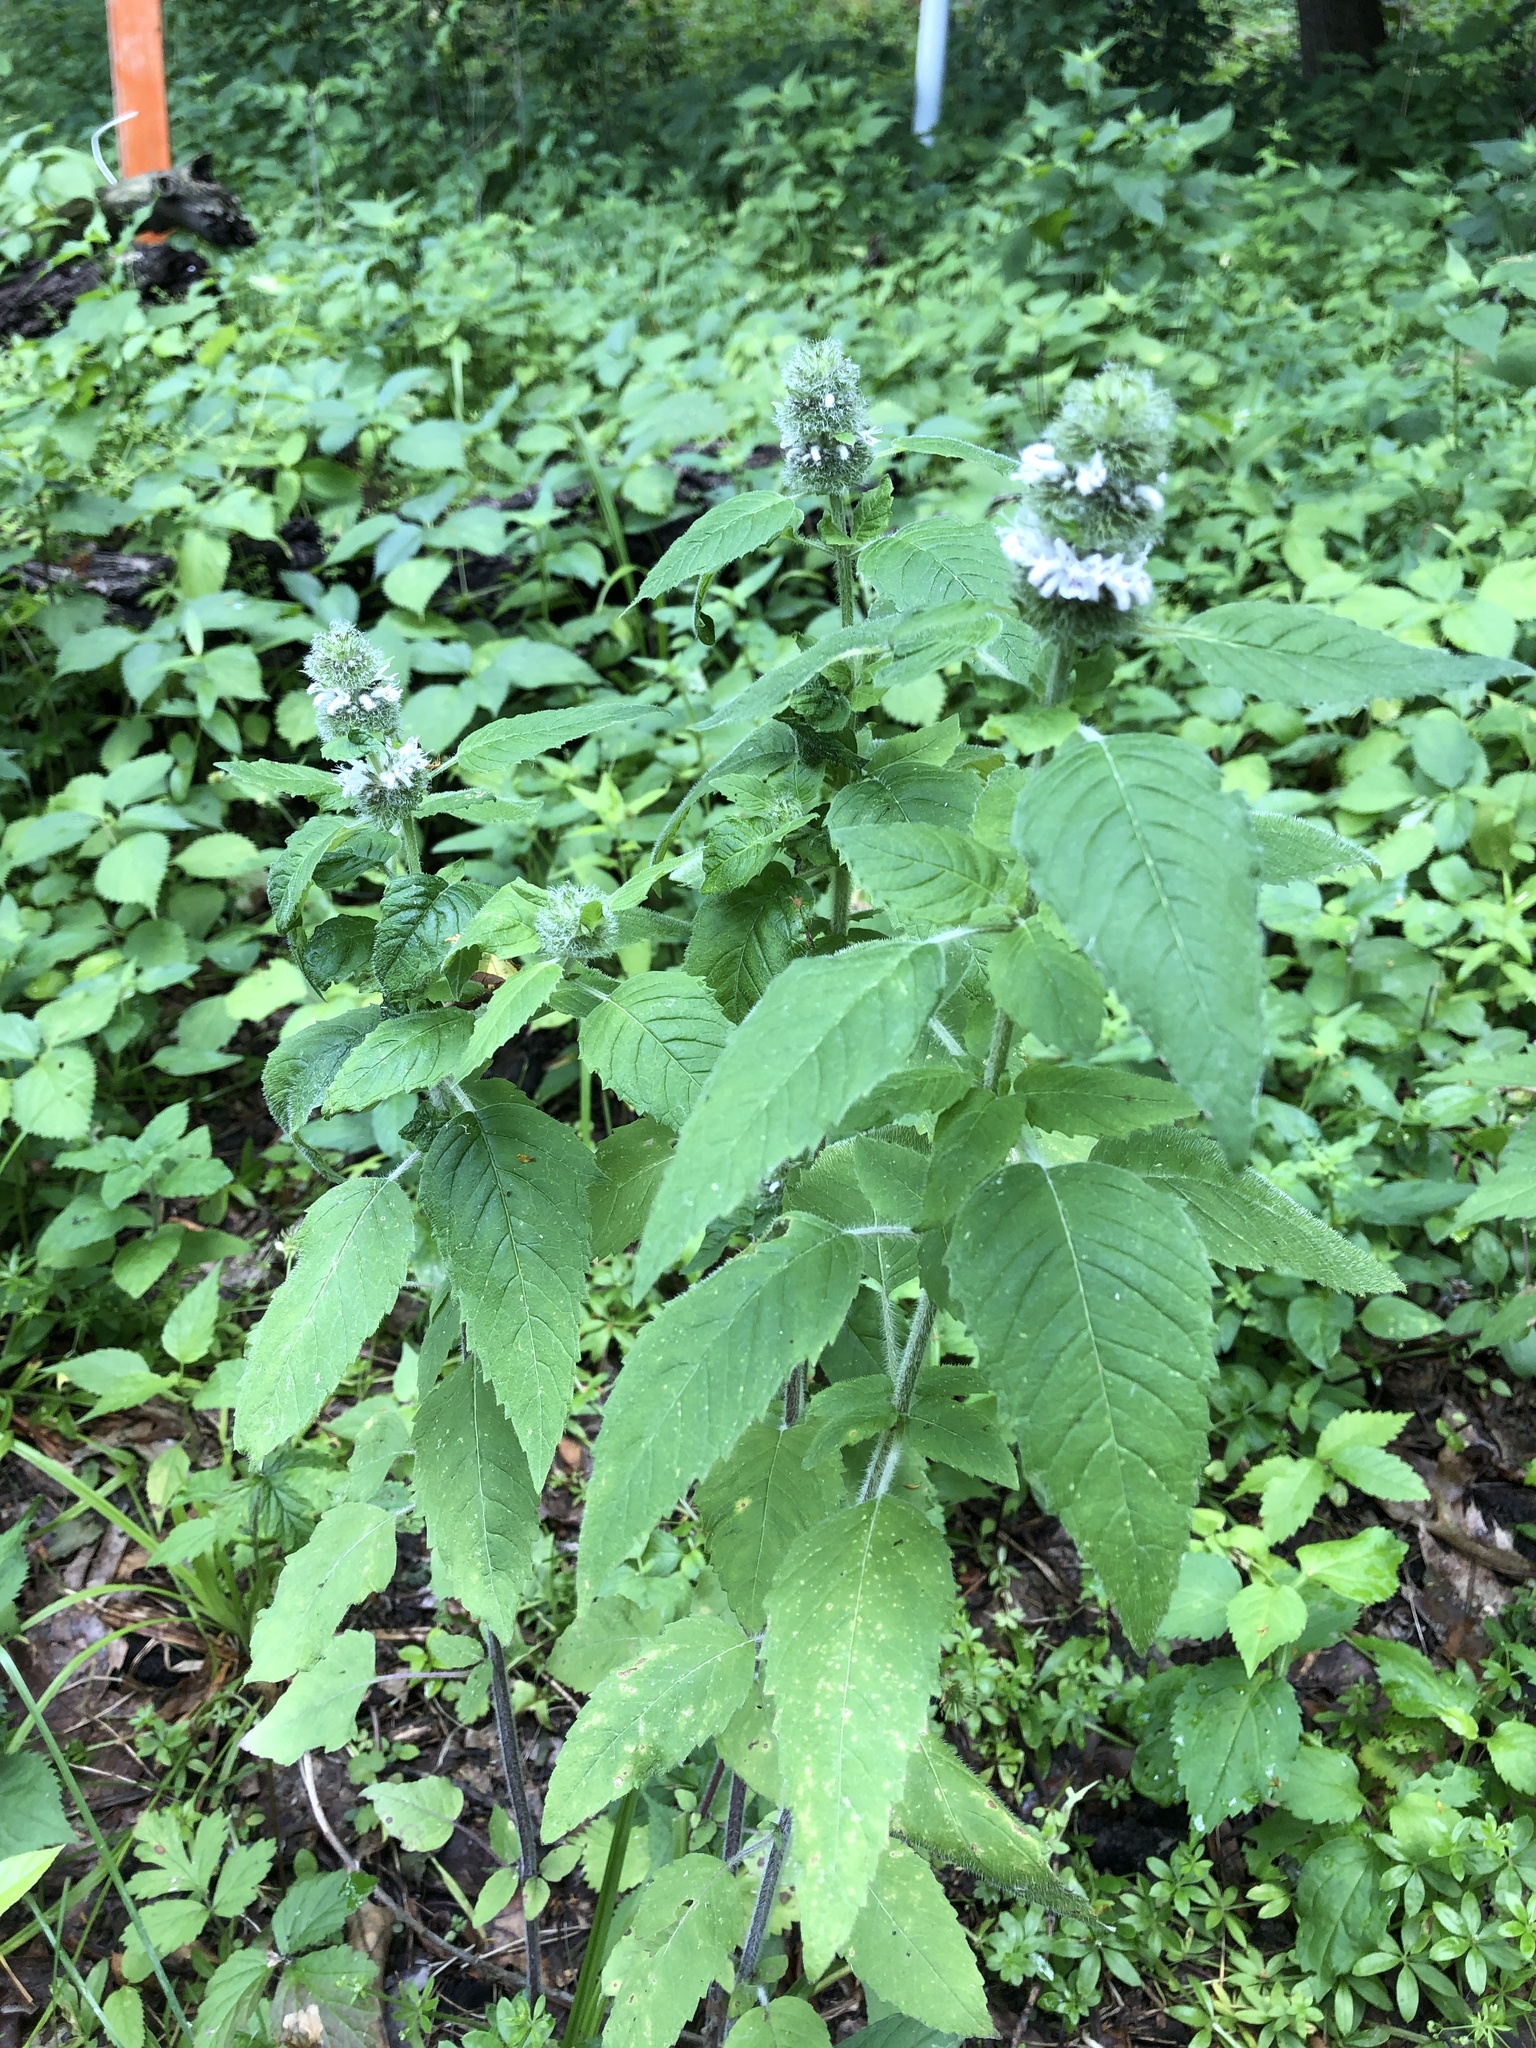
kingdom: Plantae
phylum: Tracheophyta
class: Magnoliopsida
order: Lamiales
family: Lamiaceae
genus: Blephilia
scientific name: Blephilia hirsuta
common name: Hairy blephilia
